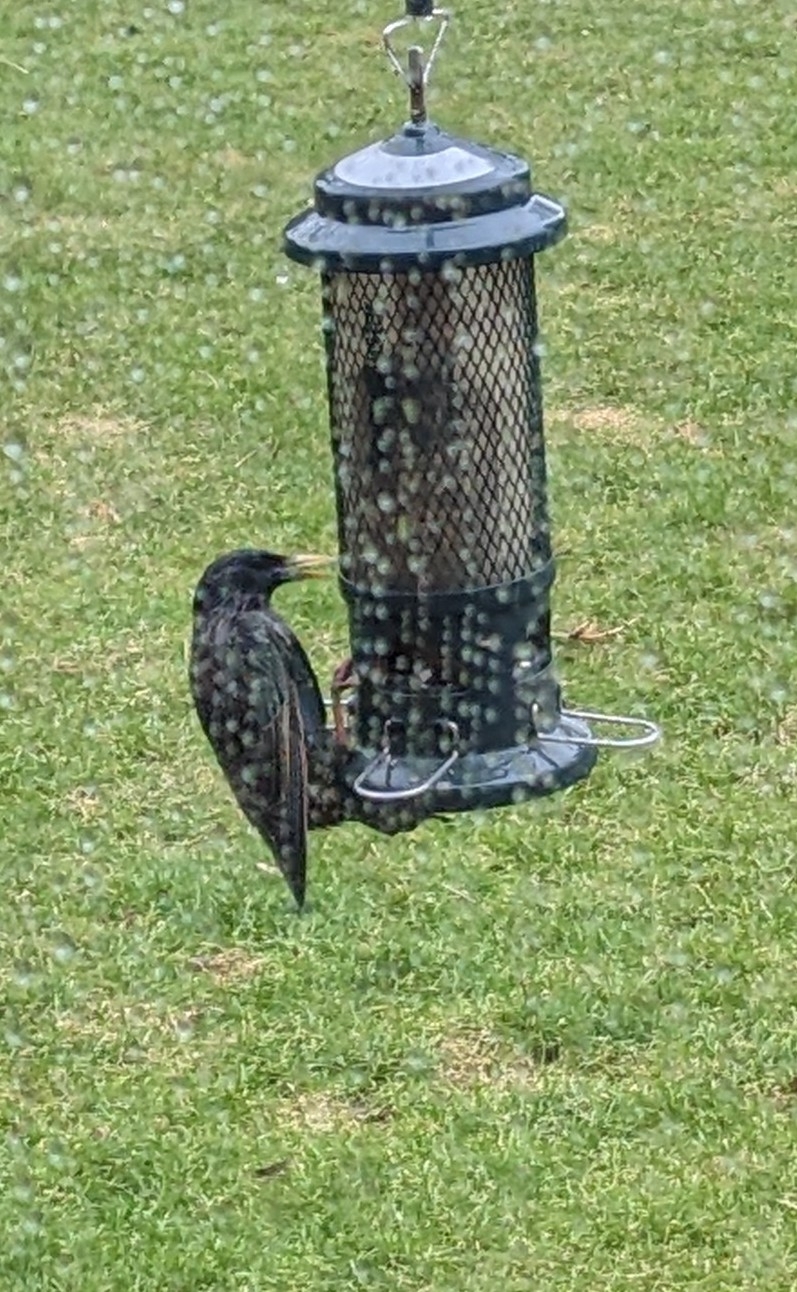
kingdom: Animalia
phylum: Chordata
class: Aves
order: Passeriformes
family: Sturnidae
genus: Sturnus
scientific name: Sturnus vulgaris
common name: Common starling
